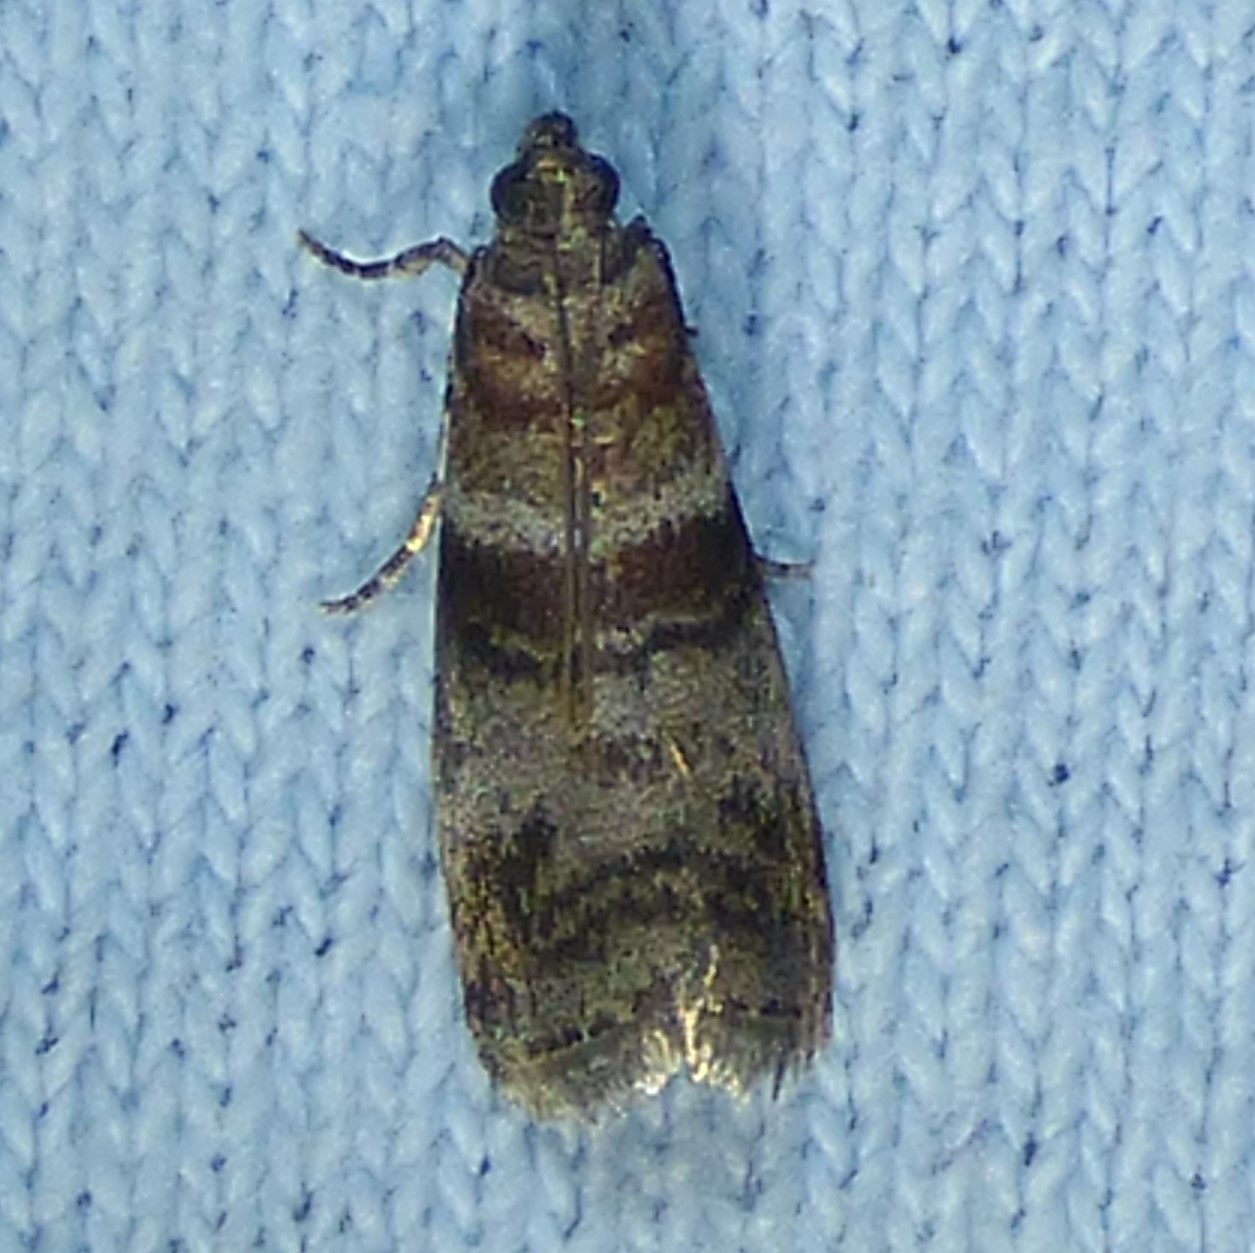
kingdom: Animalia
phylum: Arthropoda
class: Insecta
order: Lepidoptera
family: Pyralidae
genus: Sciota
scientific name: Sciota uvinella
